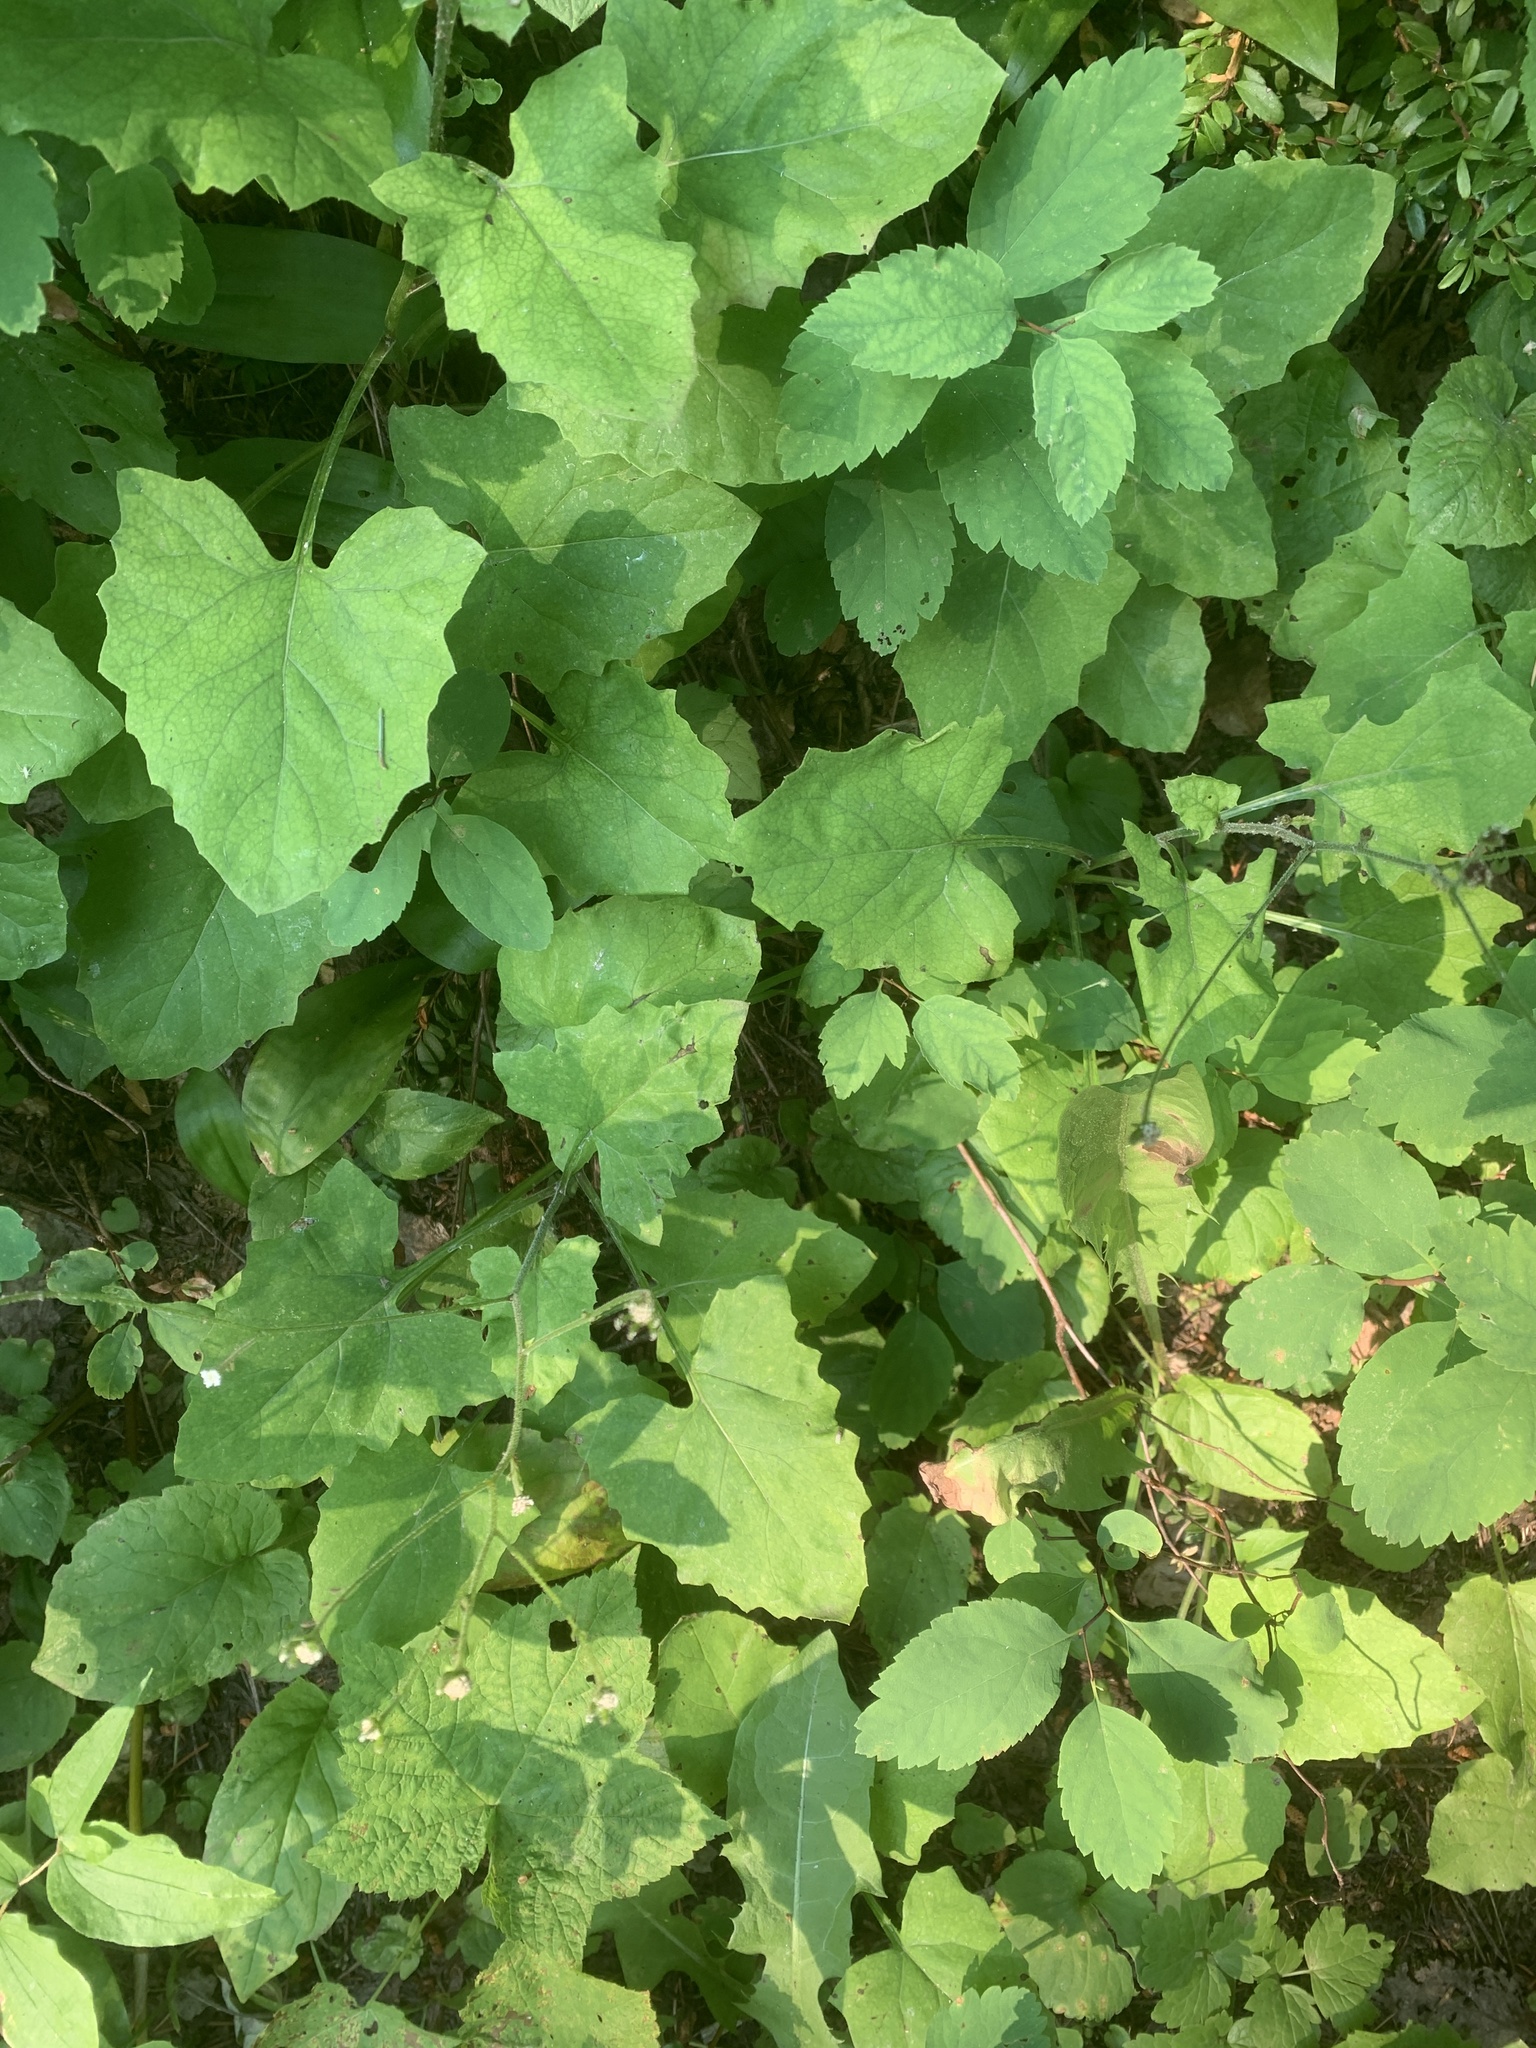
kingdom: Plantae
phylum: Tracheophyta
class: Magnoliopsida
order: Asterales
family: Asteraceae
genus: Adenocaulon
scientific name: Adenocaulon bicolor
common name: Trailplant
